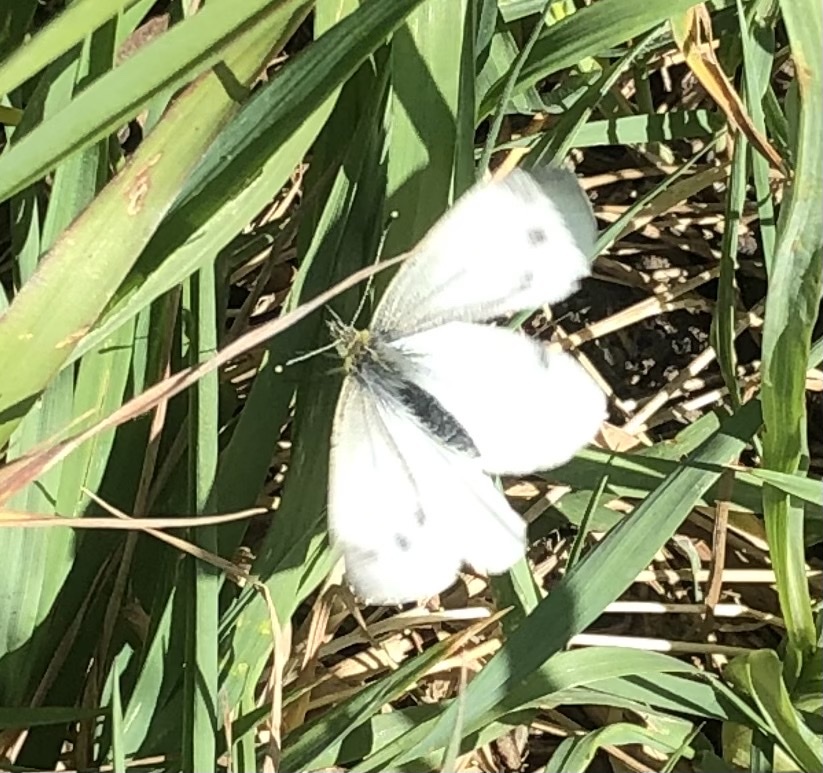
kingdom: Animalia
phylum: Arthropoda
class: Insecta
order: Lepidoptera
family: Pieridae
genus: Pieris
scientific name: Pieris rapae
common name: Small white
